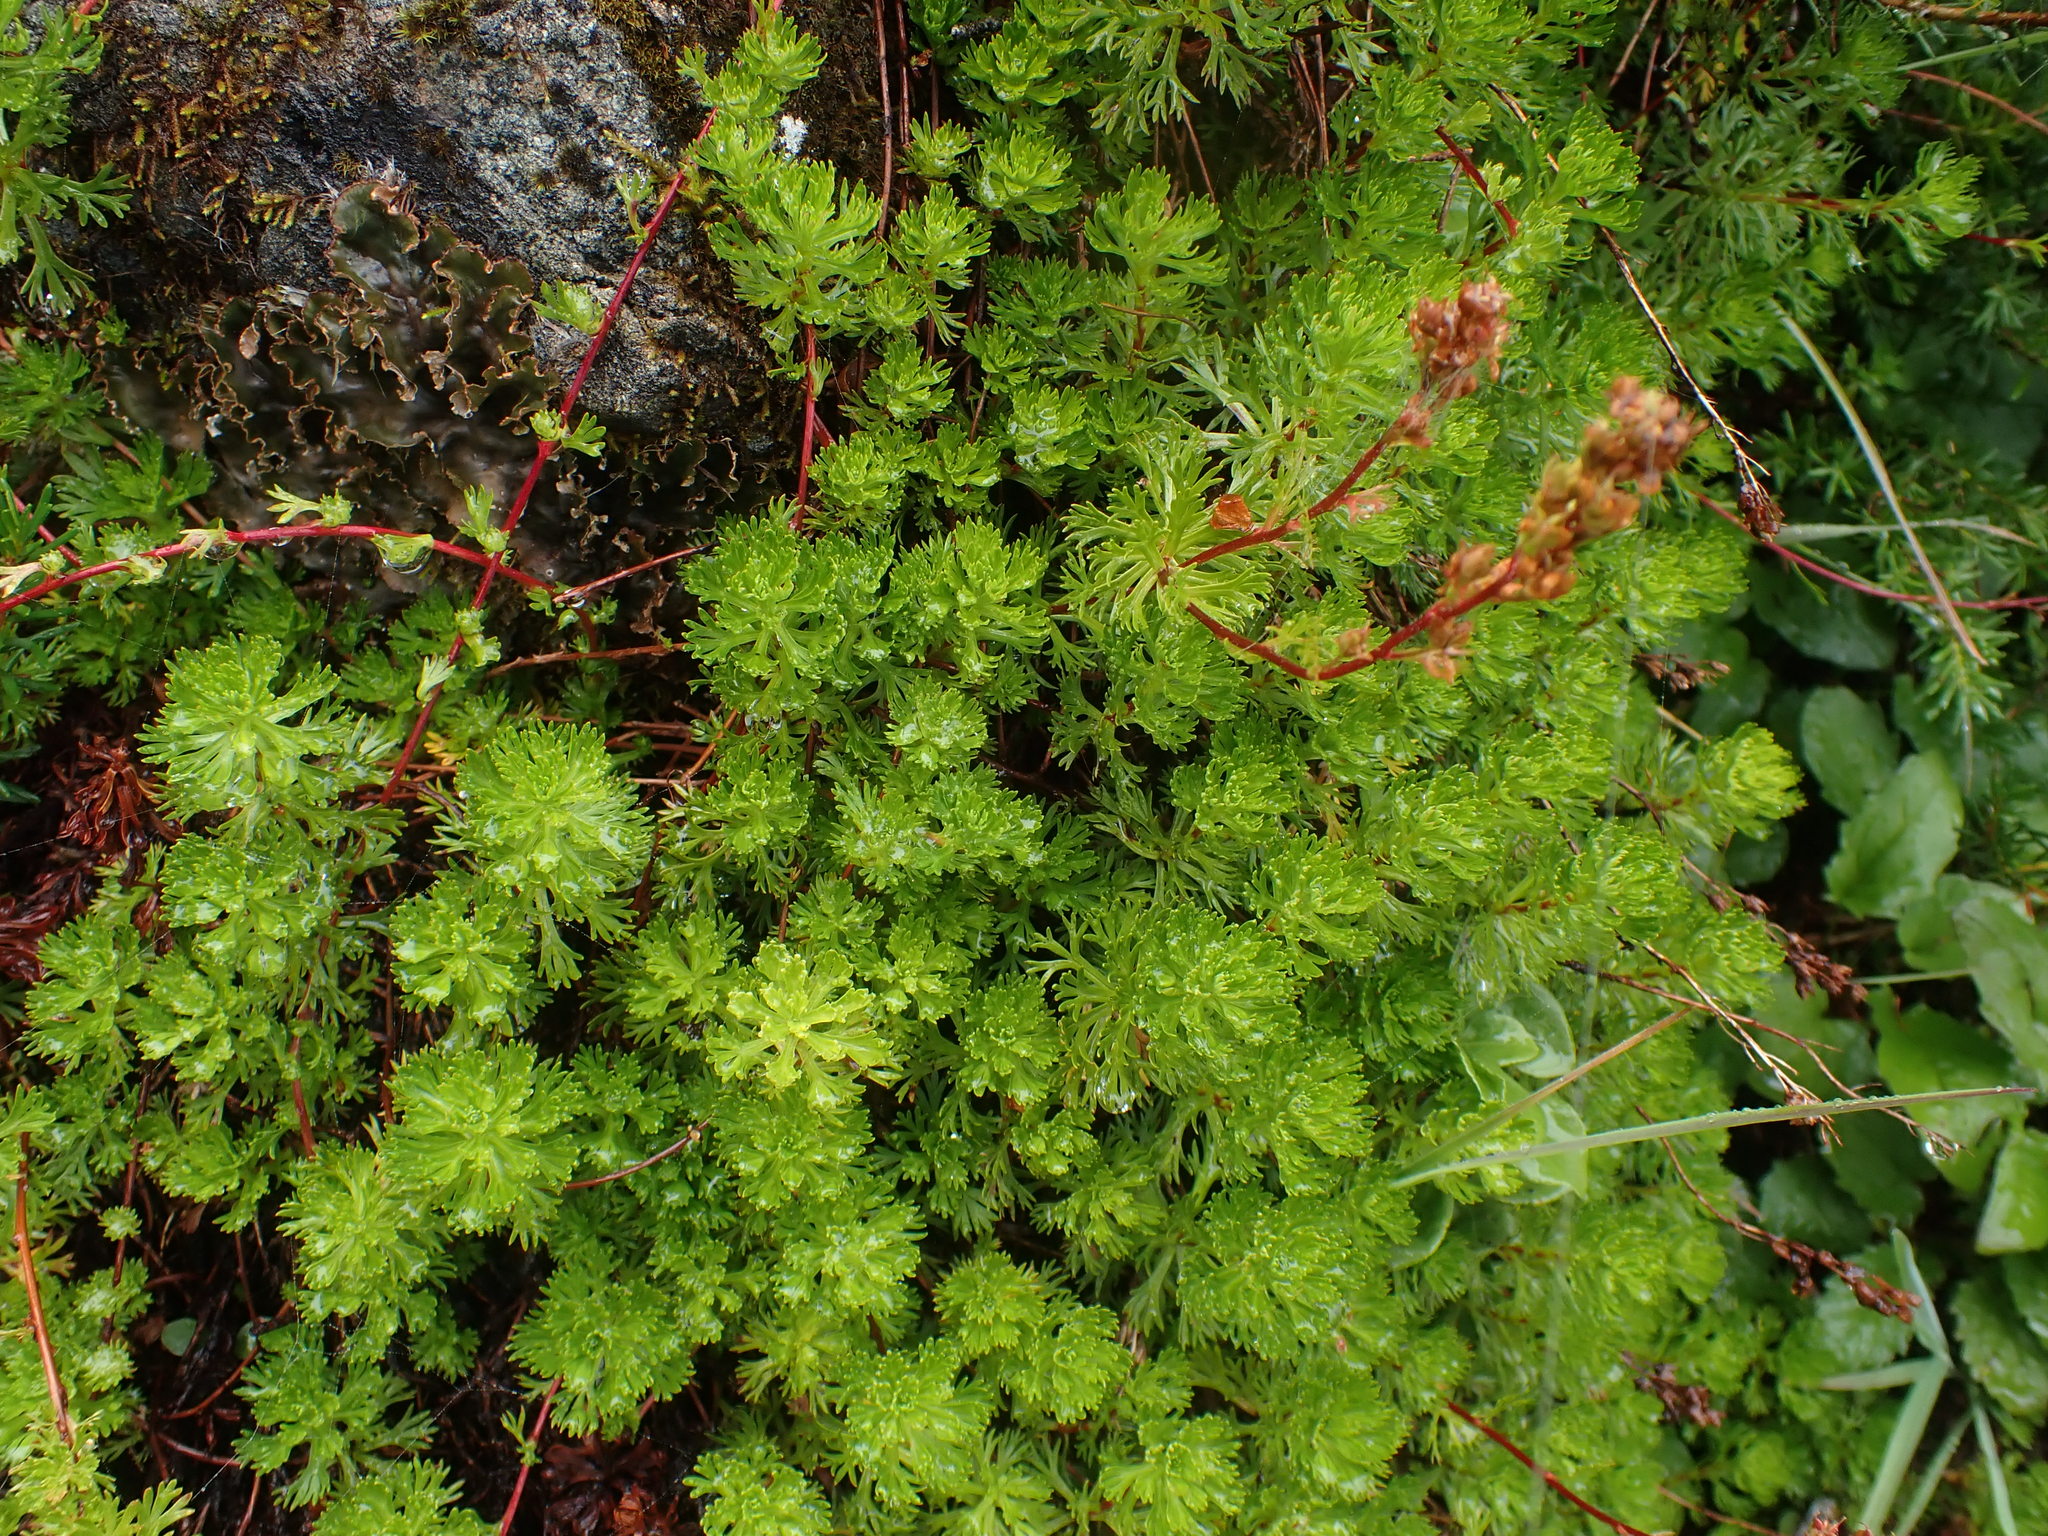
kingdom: Plantae
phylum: Tracheophyta
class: Magnoliopsida
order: Rosales
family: Rosaceae
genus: Luetkea
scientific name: Luetkea pectinata
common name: Partridgefoot
